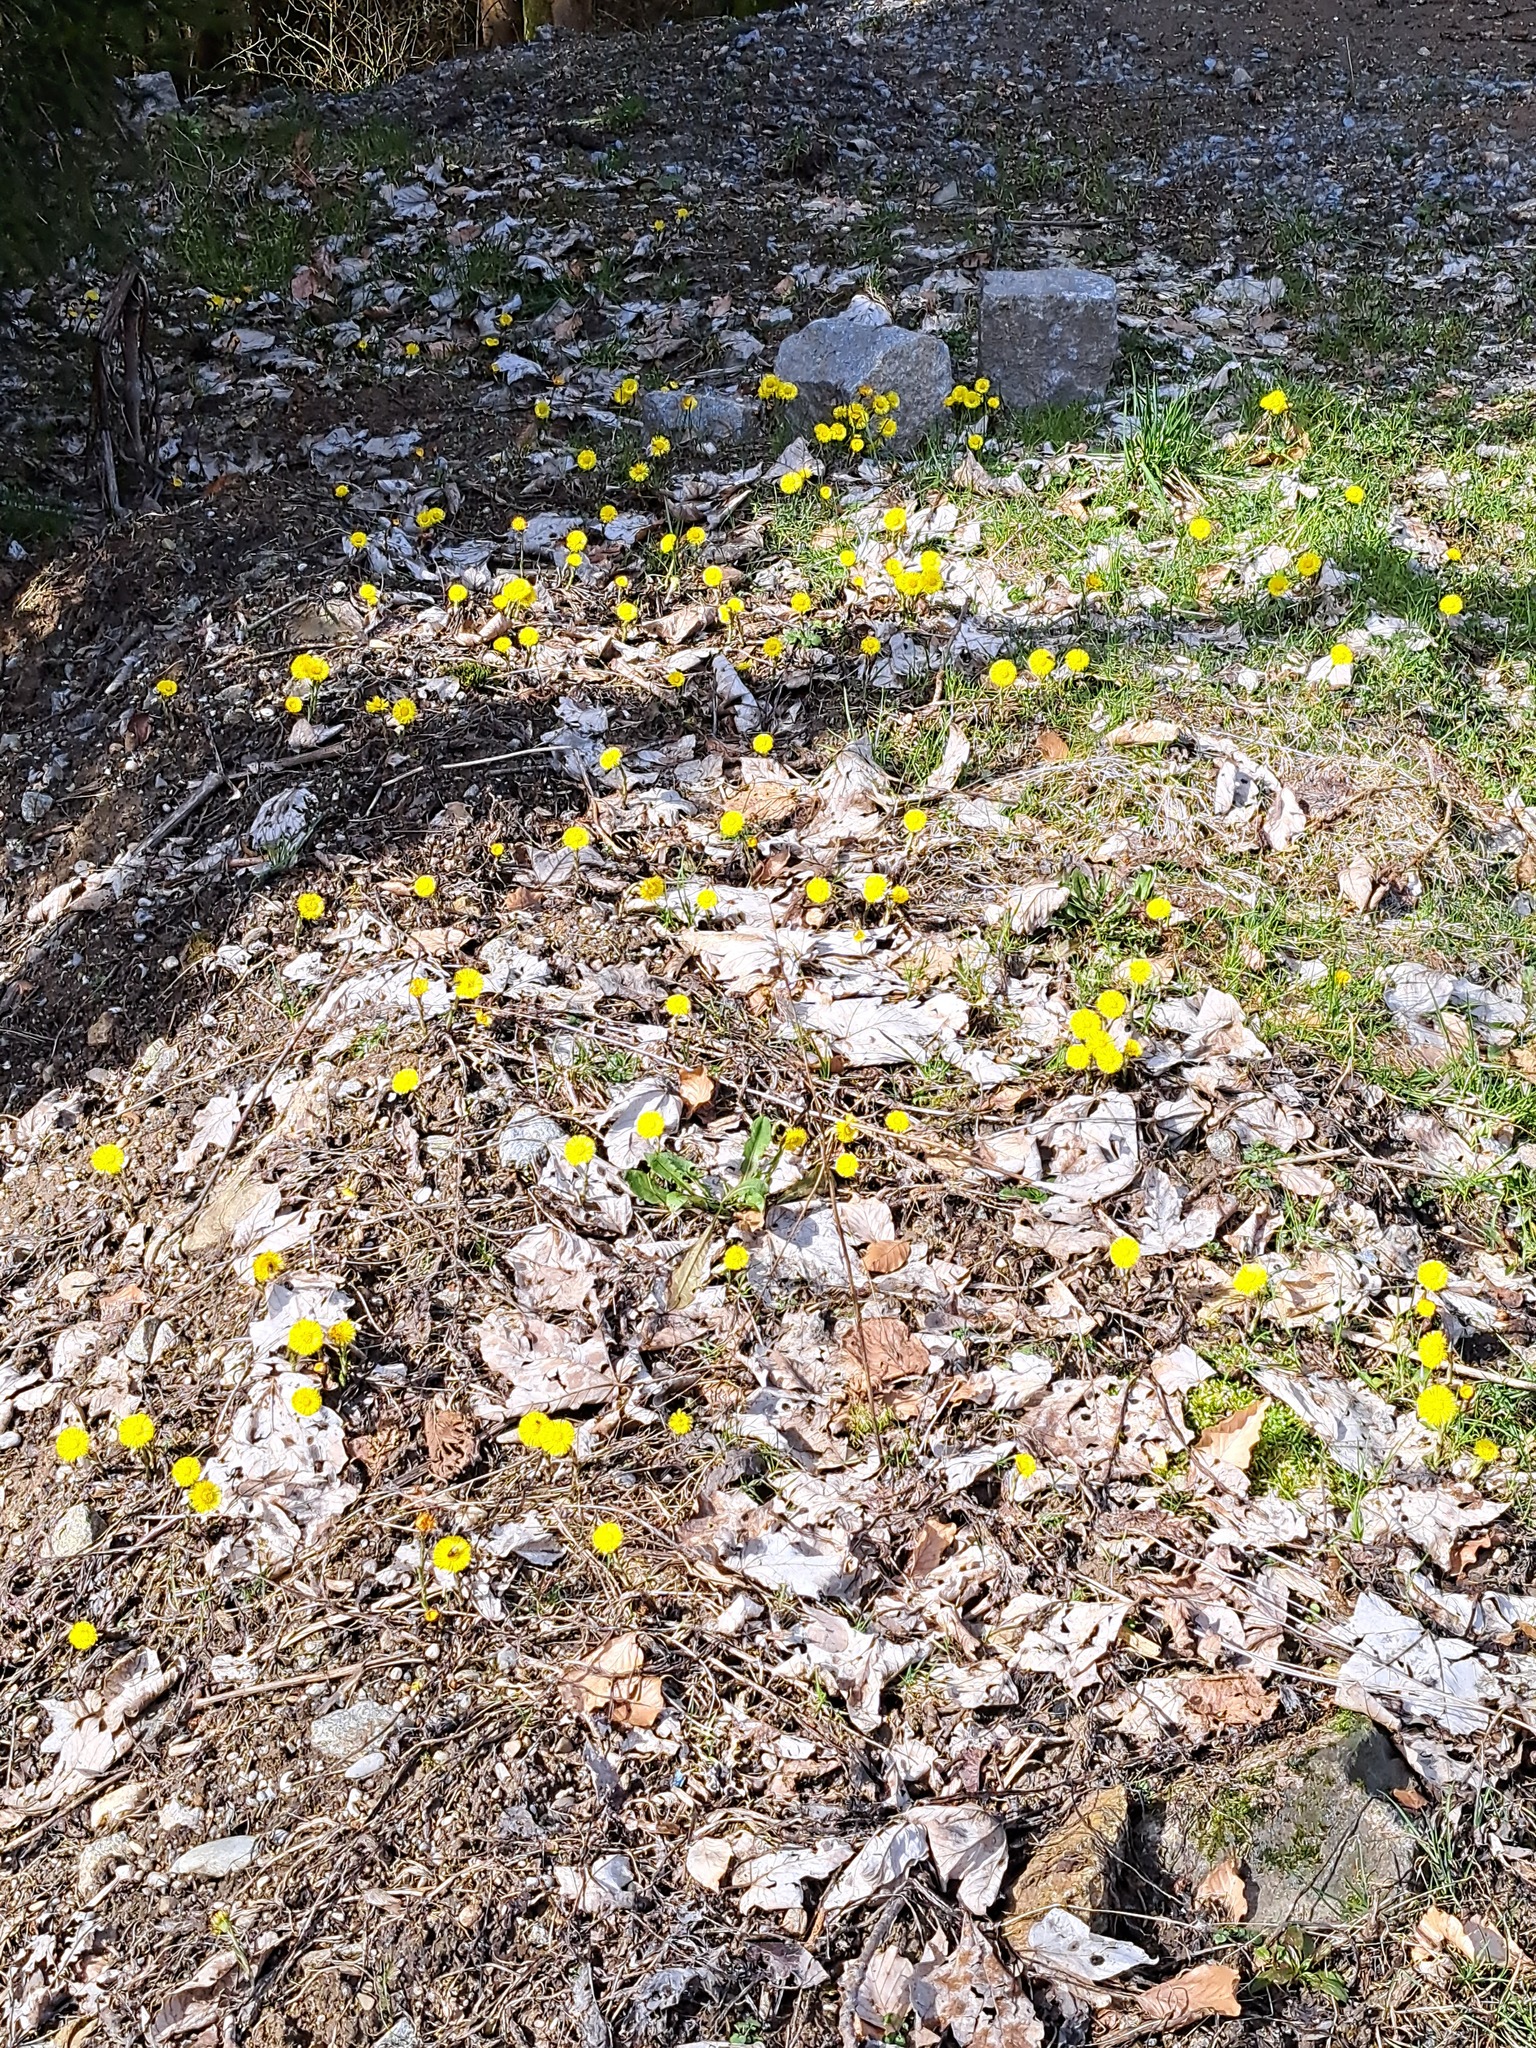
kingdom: Plantae
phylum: Tracheophyta
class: Magnoliopsida
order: Asterales
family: Asteraceae
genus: Tussilago
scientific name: Tussilago farfara
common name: Coltsfoot
